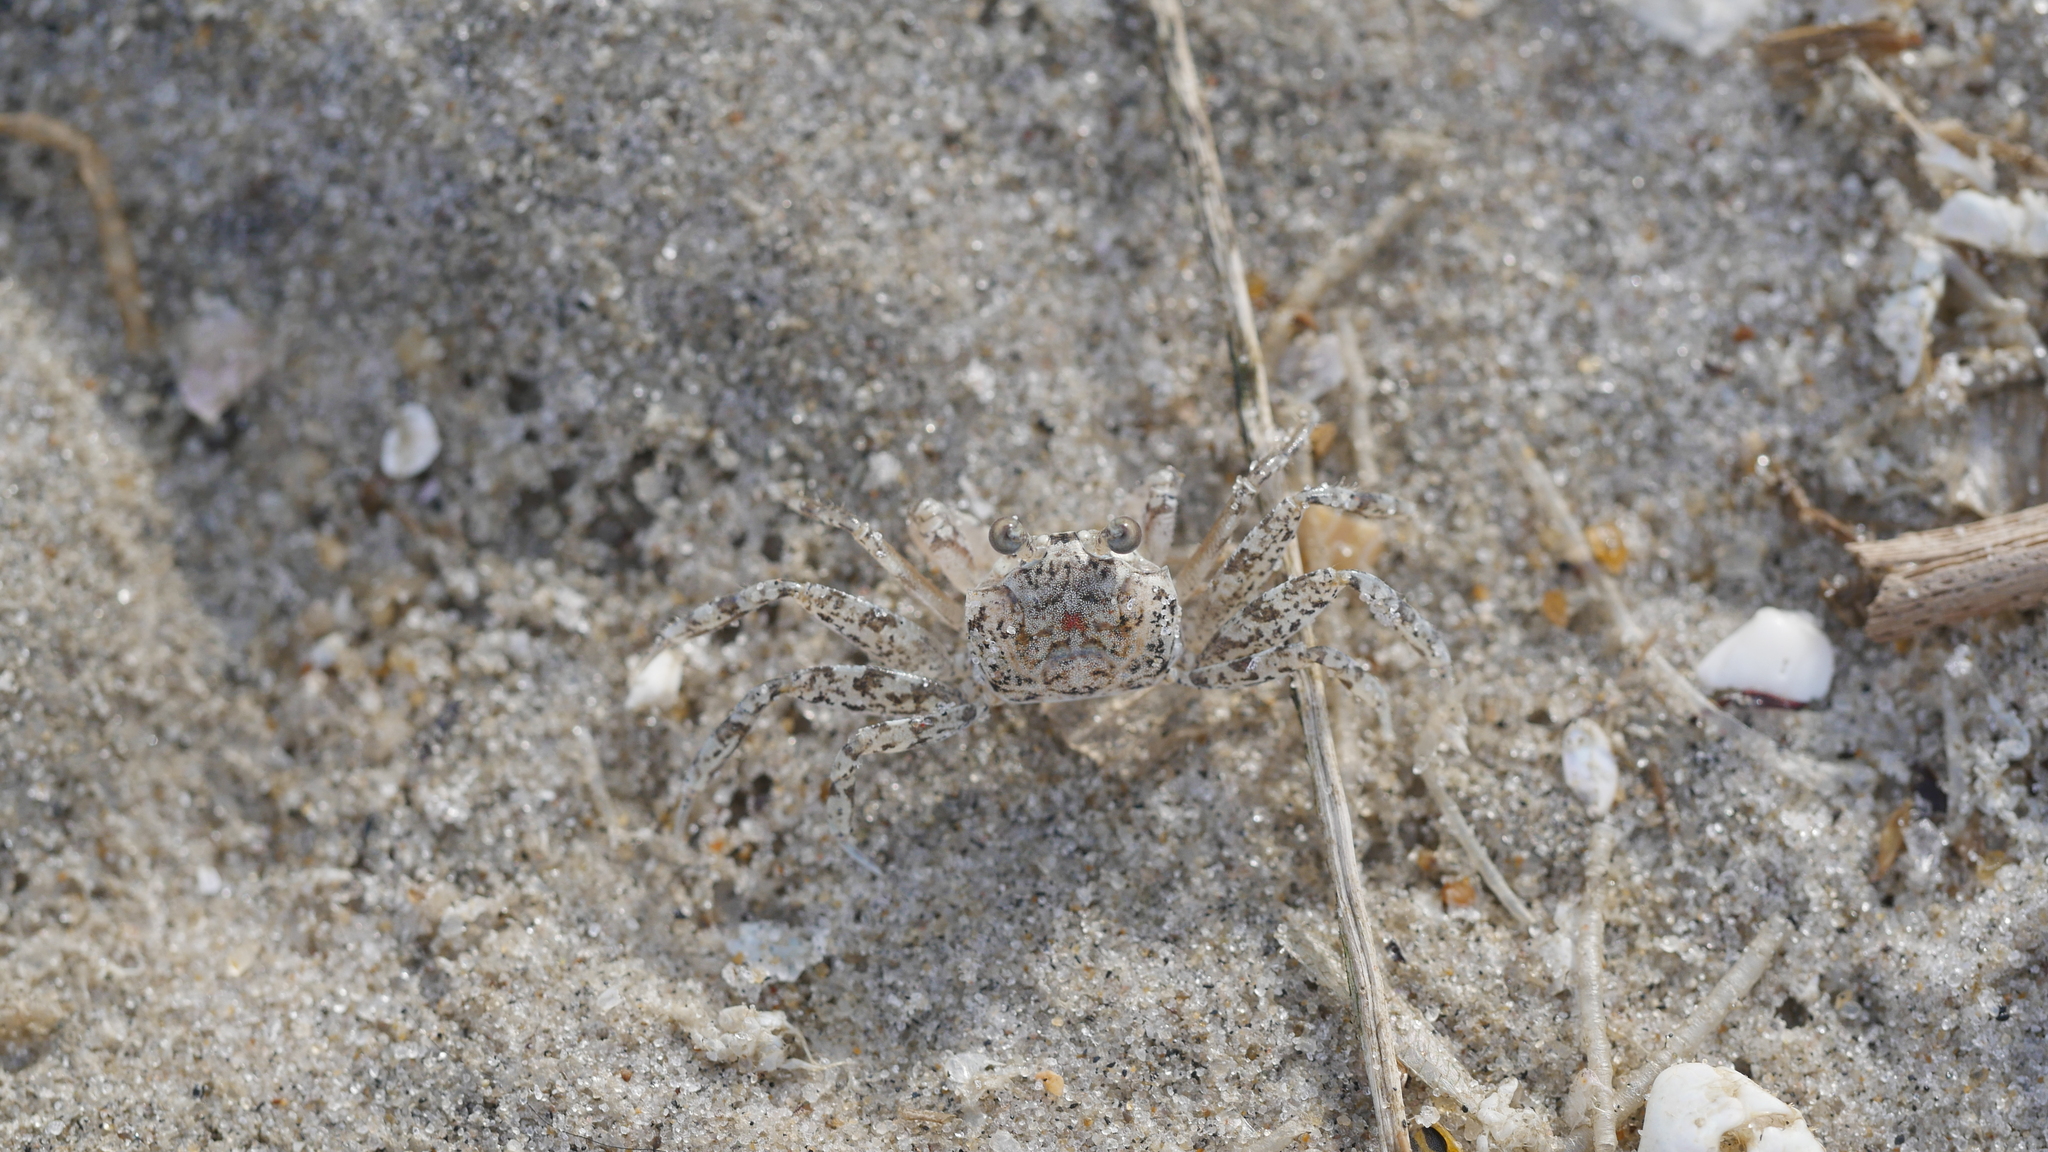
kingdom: Animalia
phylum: Arthropoda
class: Malacostraca
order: Decapoda
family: Ocypodidae
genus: Ocypode
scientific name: Ocypode quadrata
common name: Ghost crab
